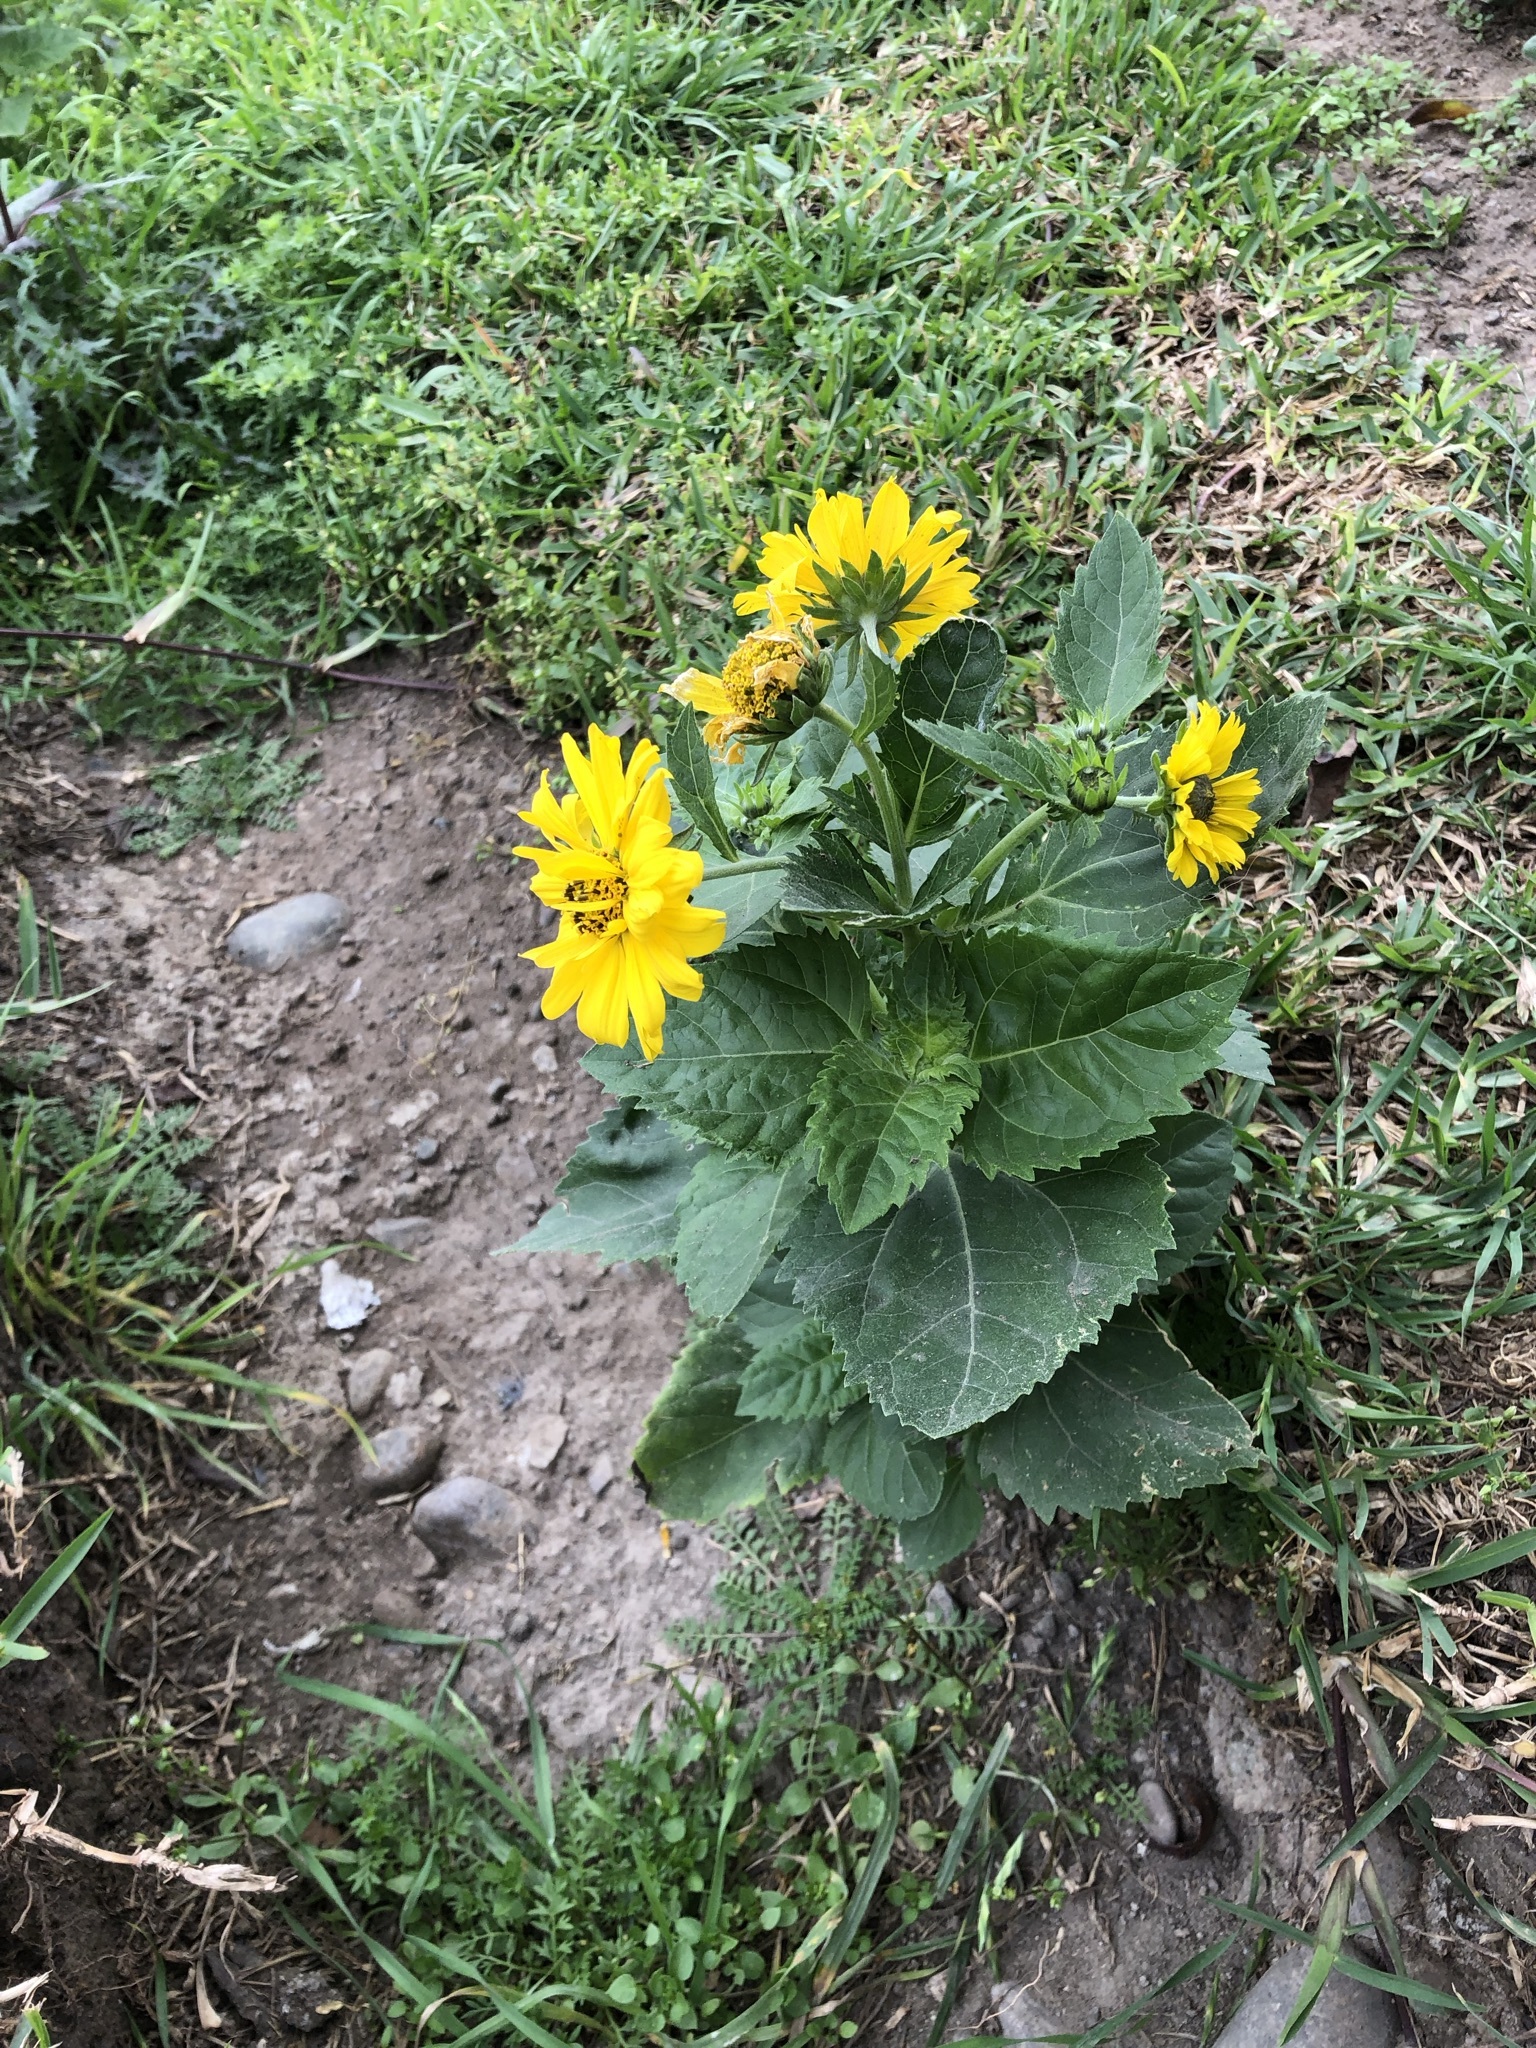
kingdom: Plantae
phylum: Tracheophyta
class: Magnoliopsida
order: Asterales
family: Asteraceae
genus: Verbesina
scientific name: Verbesina encelioides
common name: Golden crownbeard
